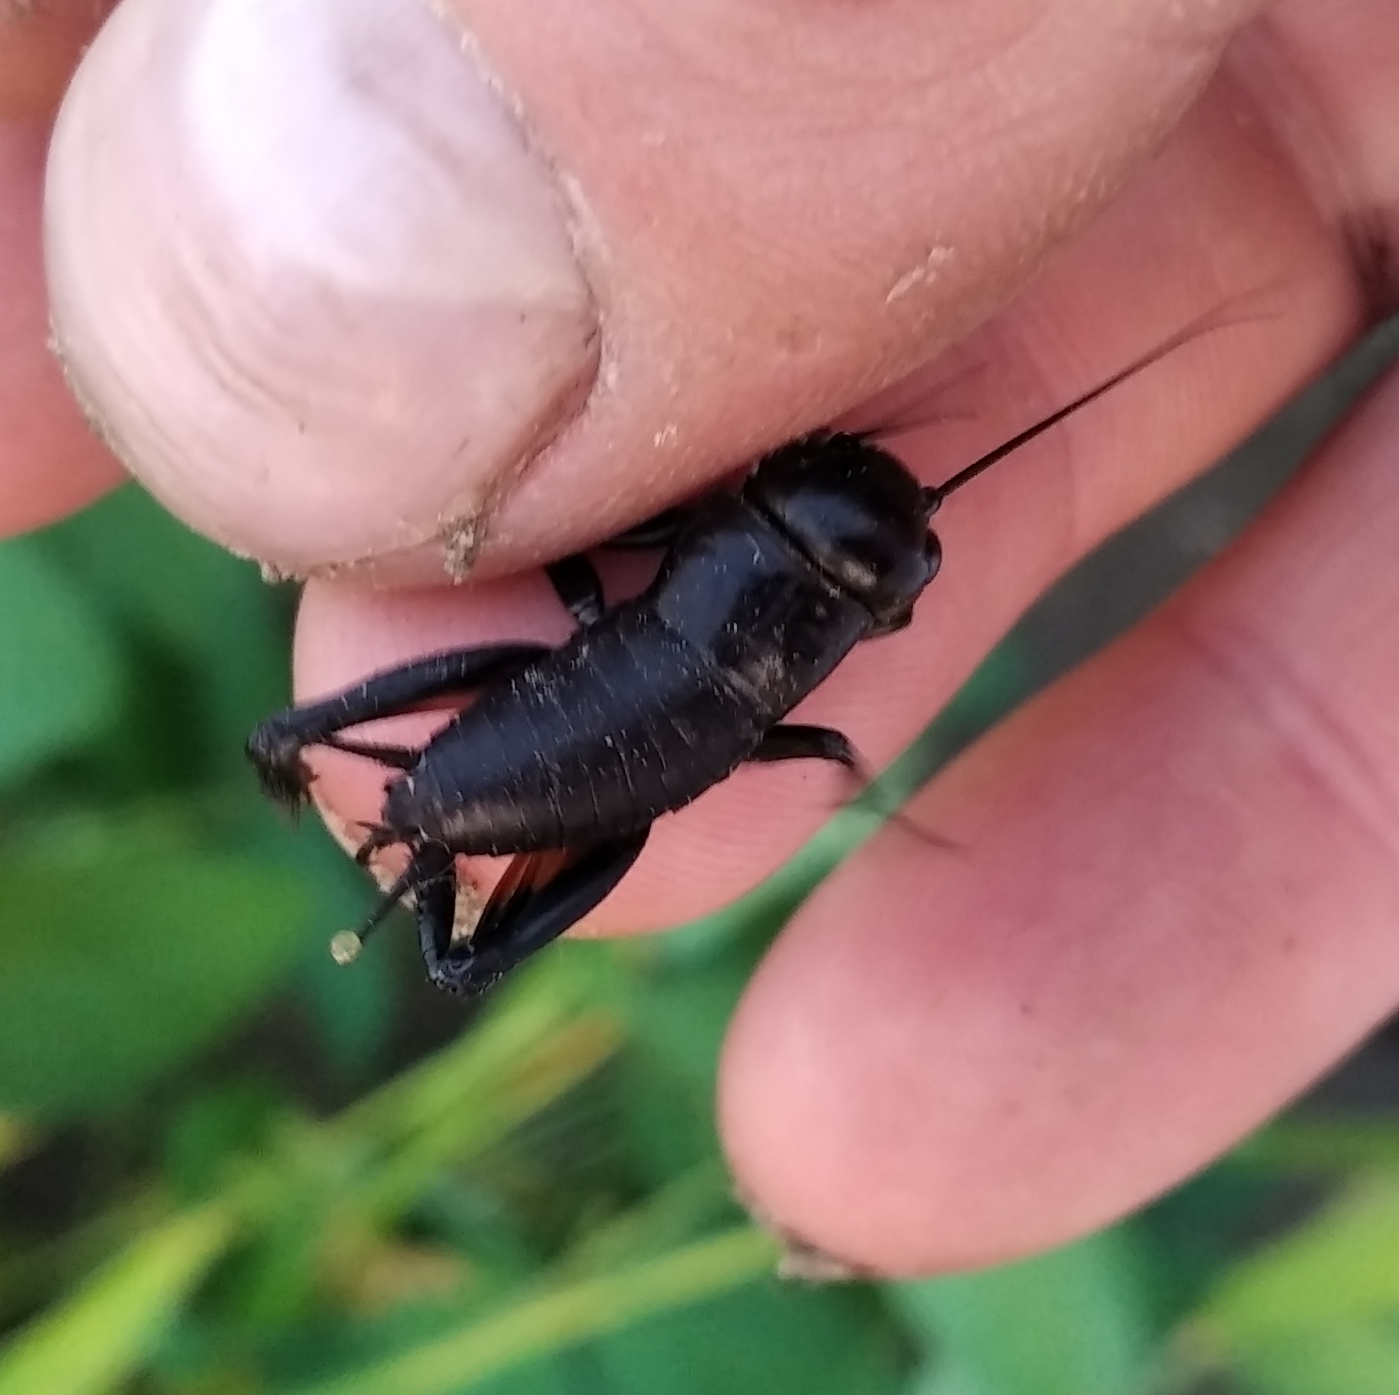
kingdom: Animalia
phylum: Arthropoda
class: Insecta
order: Orthoptera
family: Gryllidae
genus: Gryllus
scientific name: Gryllus campestris
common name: Field cricket
